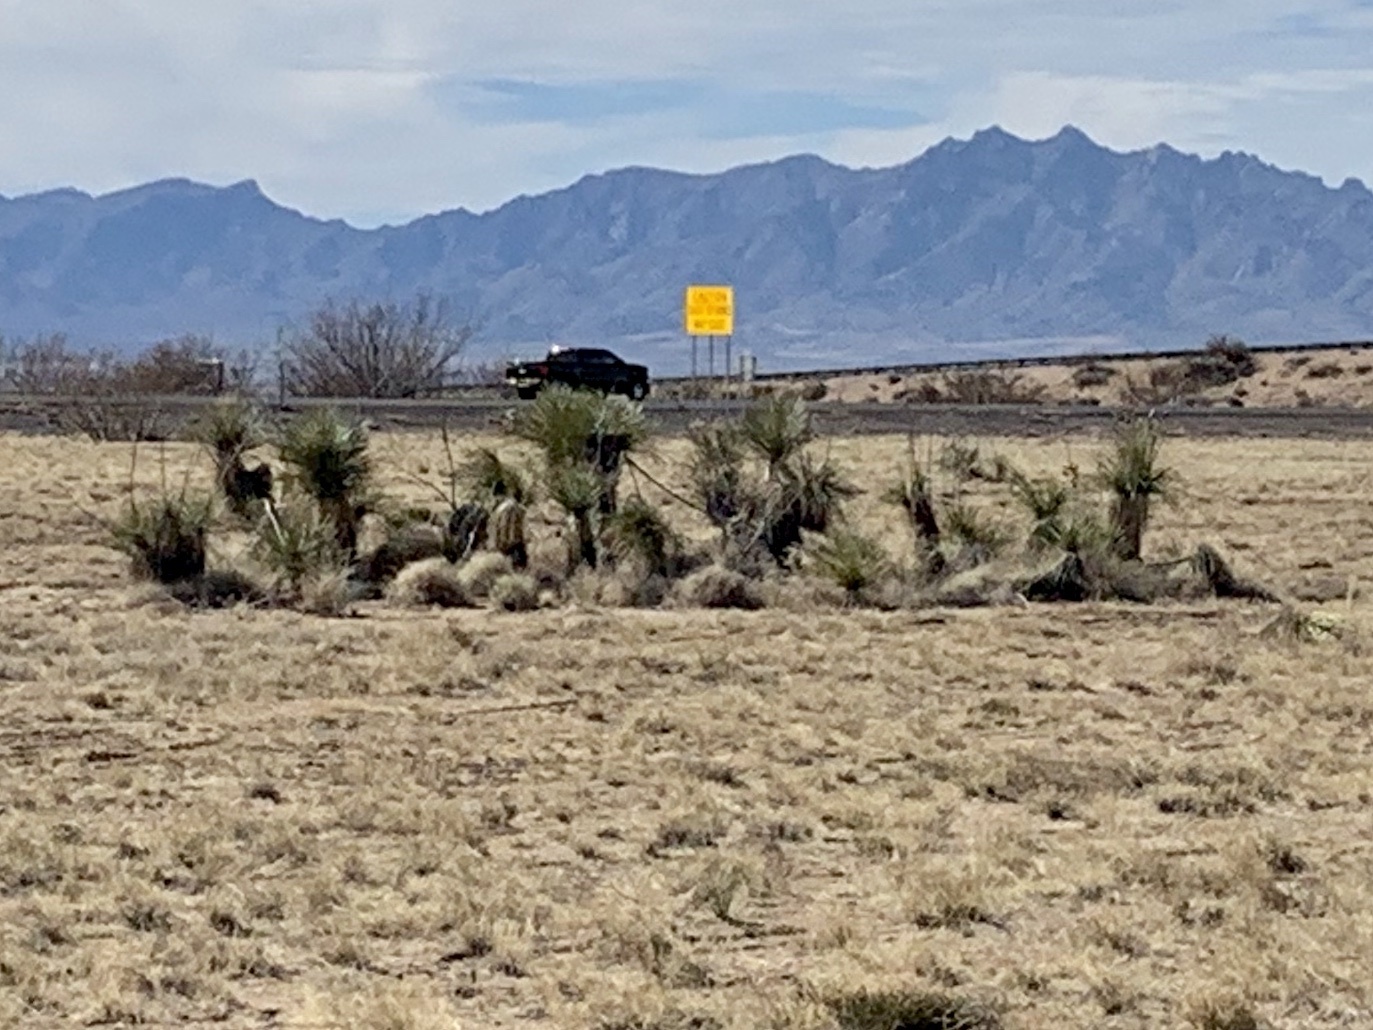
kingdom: Plantae
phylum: Tracheophyta
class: Liliopsida
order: Asparagales
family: Asparagaceae
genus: Yucca
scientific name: Yucca elata
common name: Palmella
